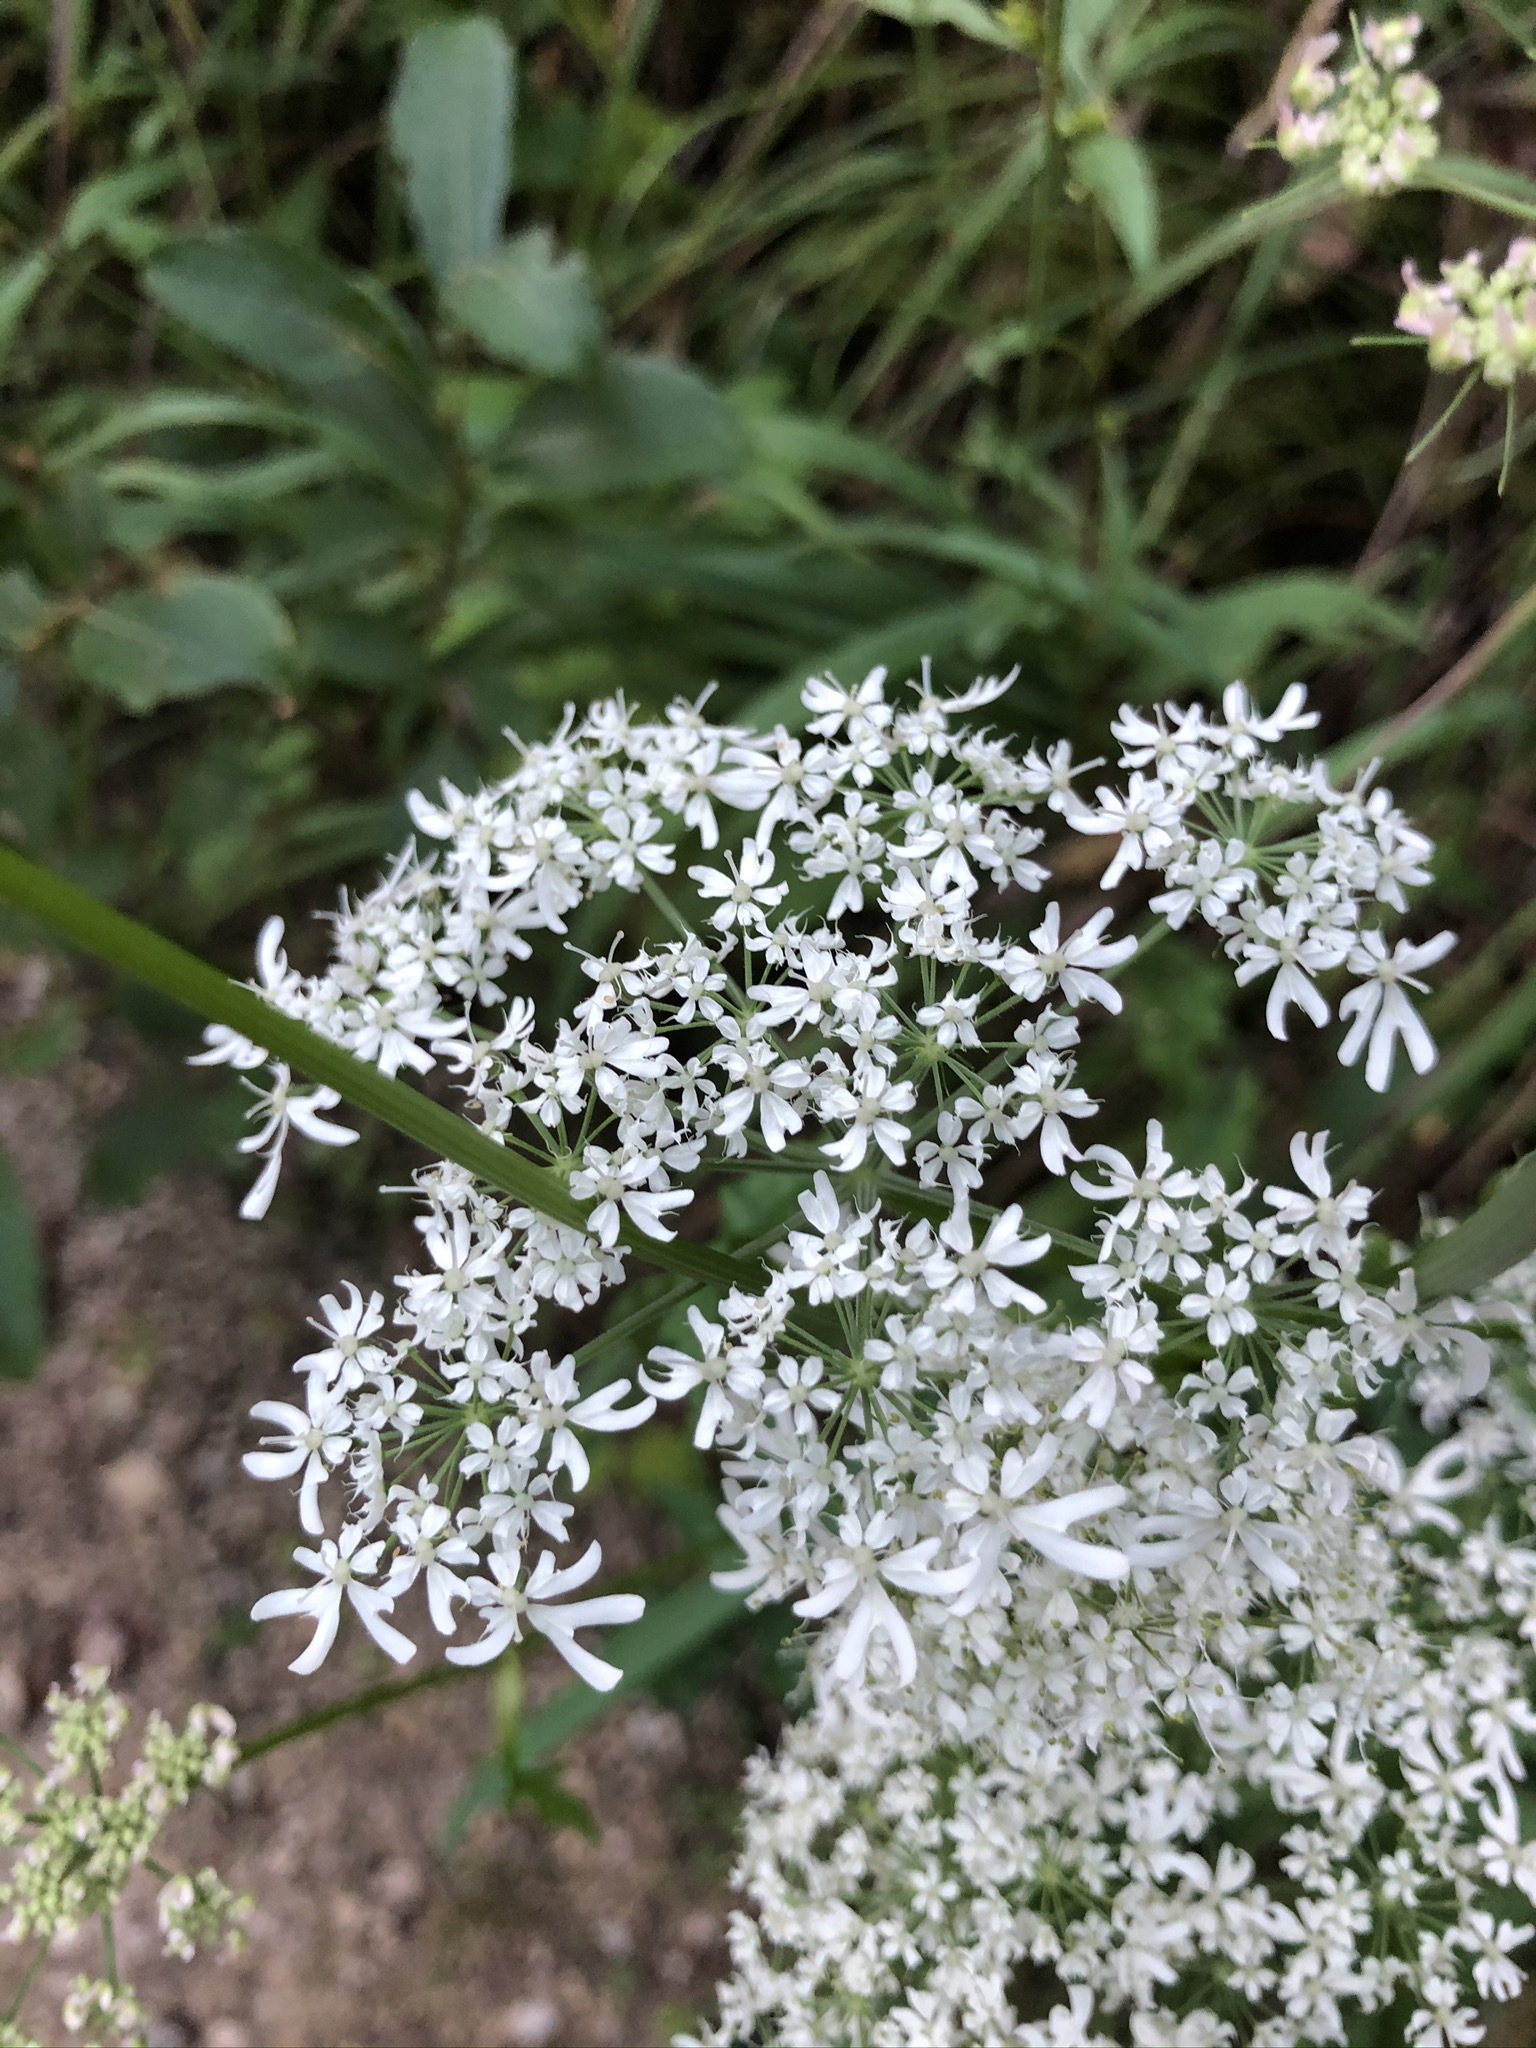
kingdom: Plantae
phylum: Tracheophyta
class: Magnoliopsida
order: Apiales
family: Apiaceae
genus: Heracleum
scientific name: Heracleum austriacum
